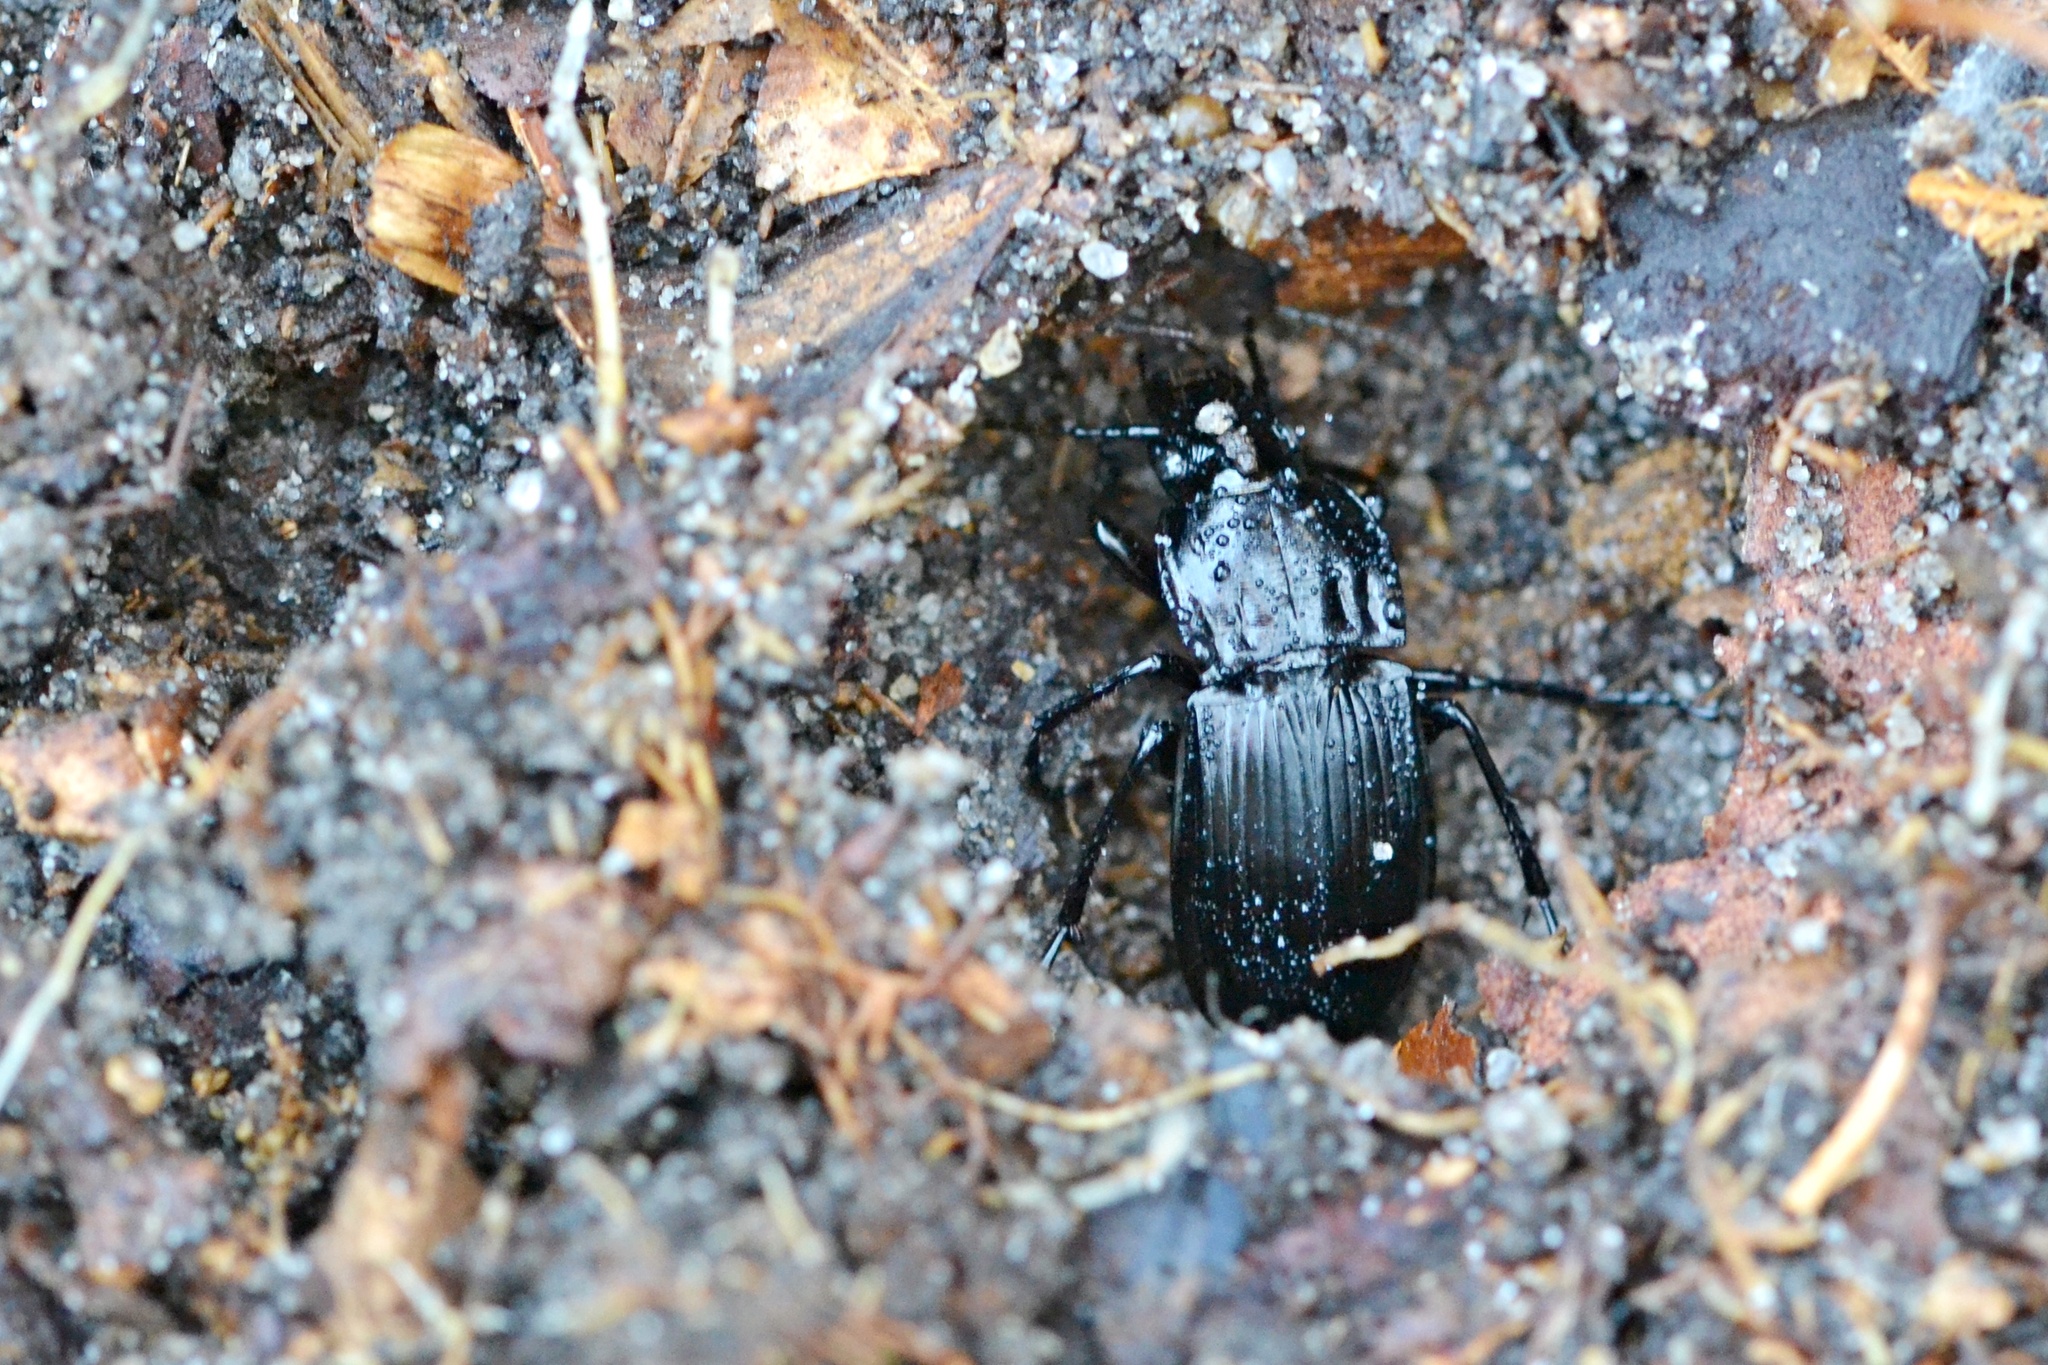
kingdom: Animalia
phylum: Arthropoda
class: Insecta
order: Coleoptera
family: Carabidae
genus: Abax
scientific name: Abax parallelepipedus
